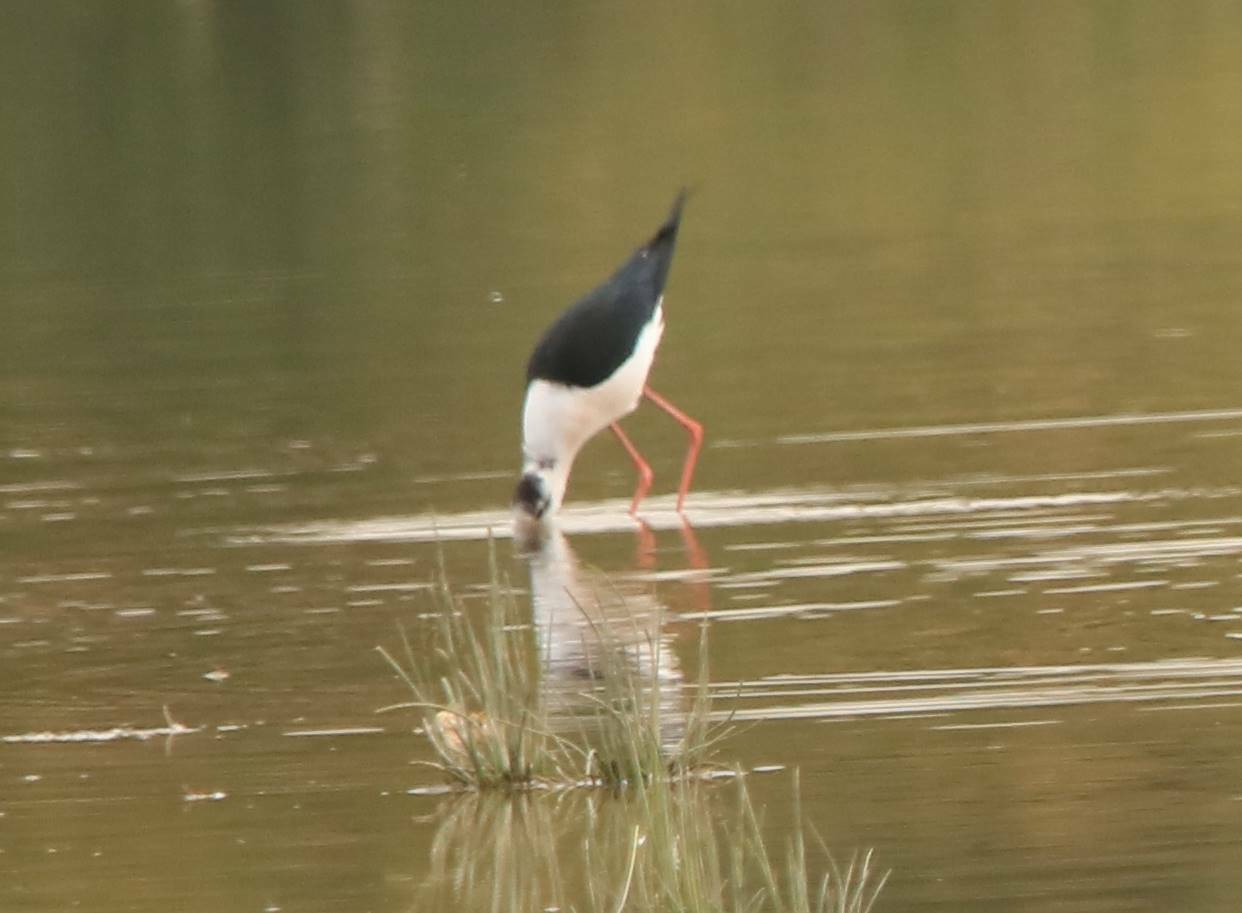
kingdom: Animalia
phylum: Chordata
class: Aves
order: Charadriiformes
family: Recurvirostridae
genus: Himantopus
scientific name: Himantopus himantopus
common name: Black-winged stilt
